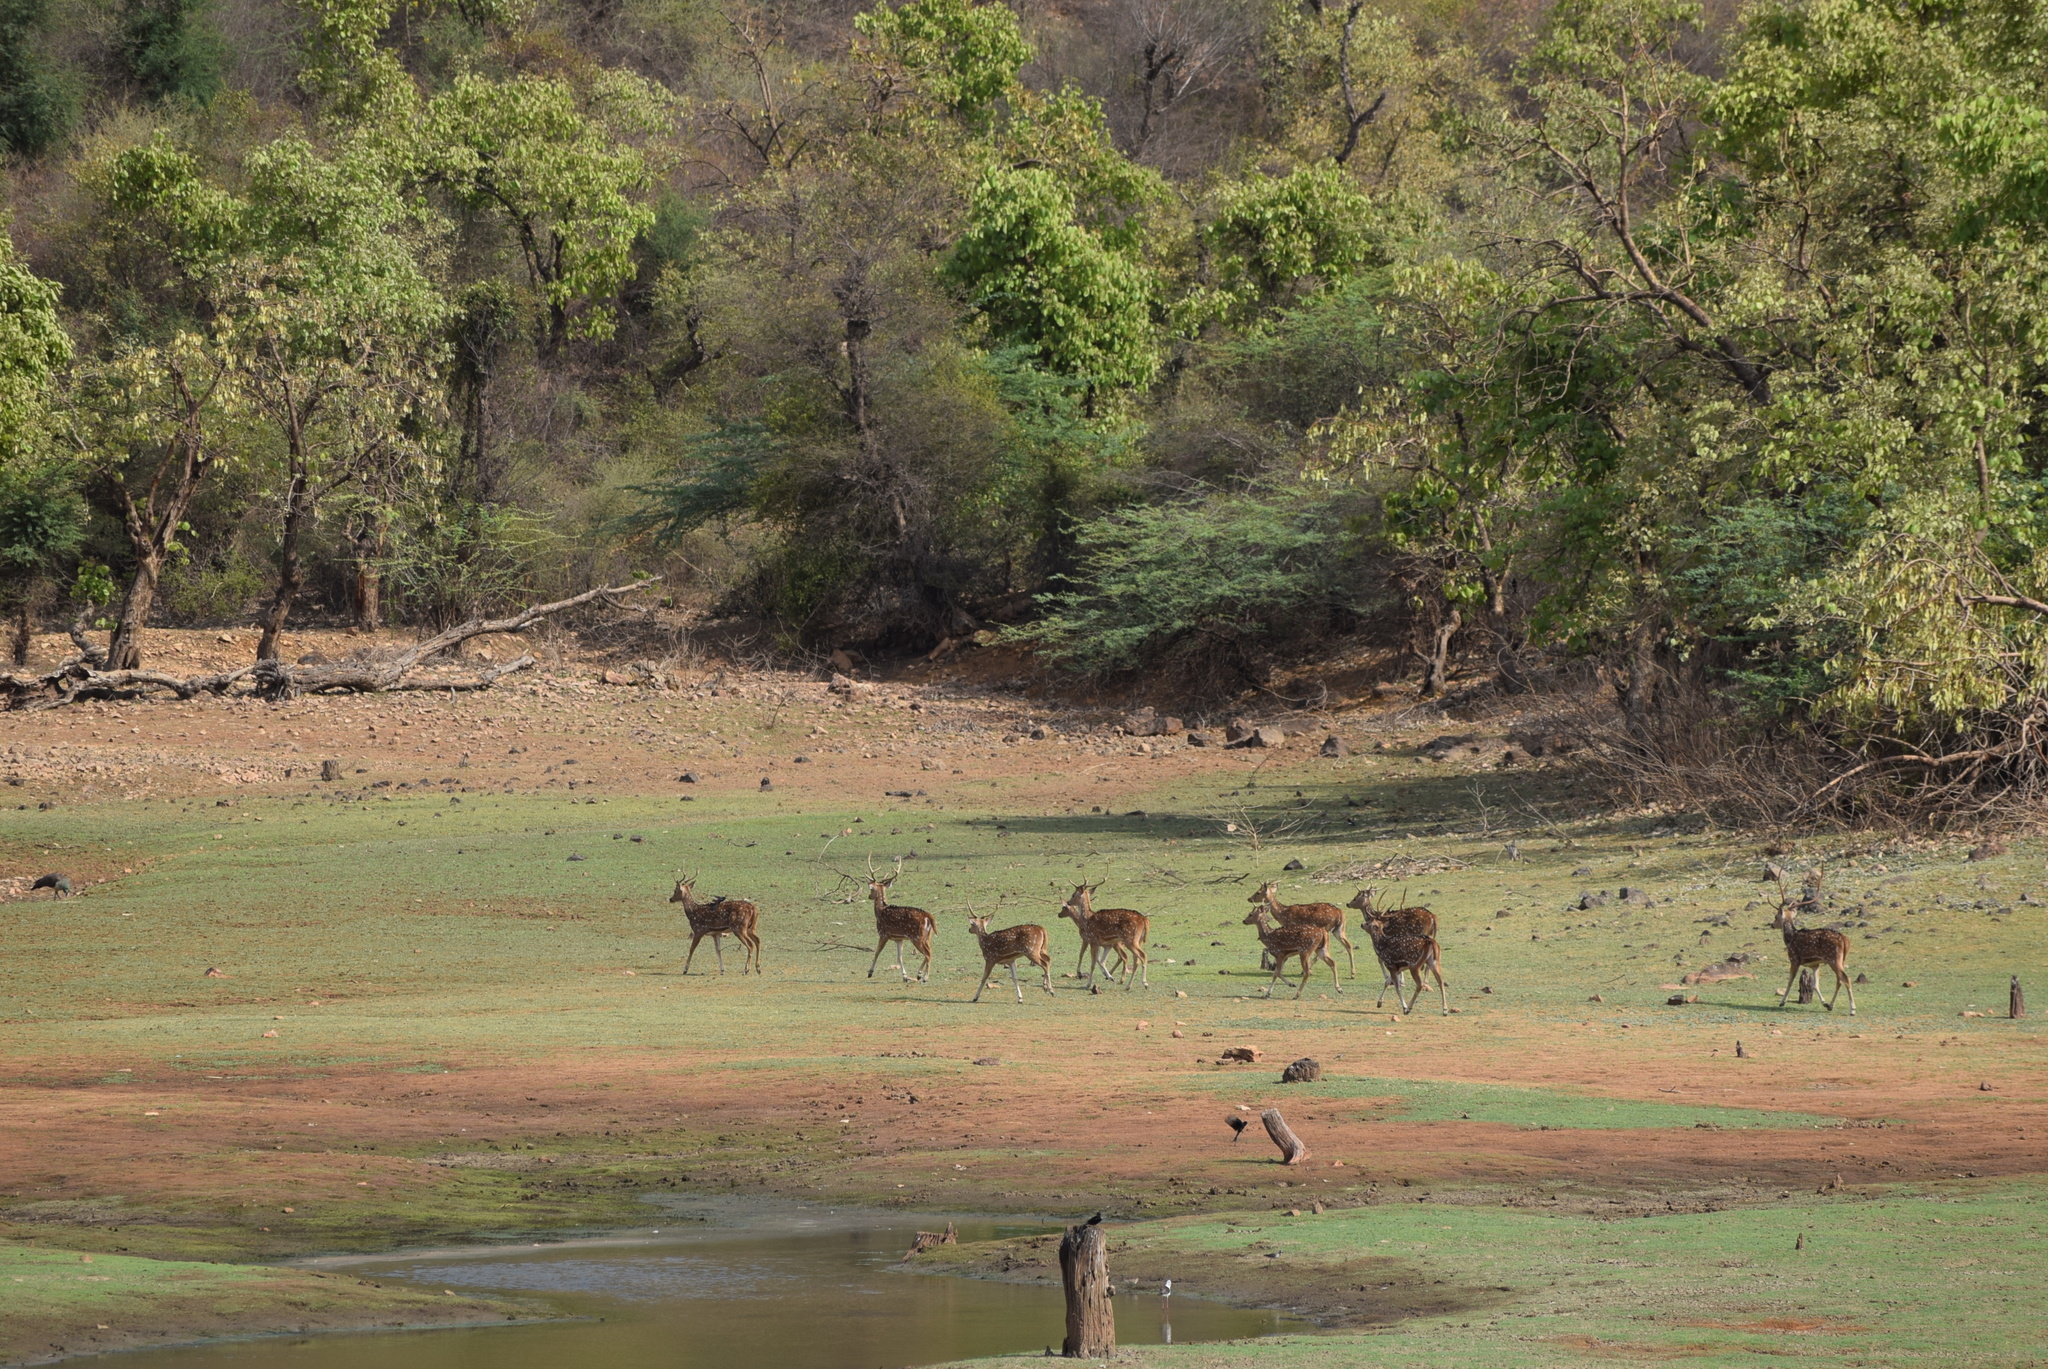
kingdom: Animalia
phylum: Chordata
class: Mammalia
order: Artiodactyla
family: Cervidae
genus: Axis
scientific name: Axis axis
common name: Chital
